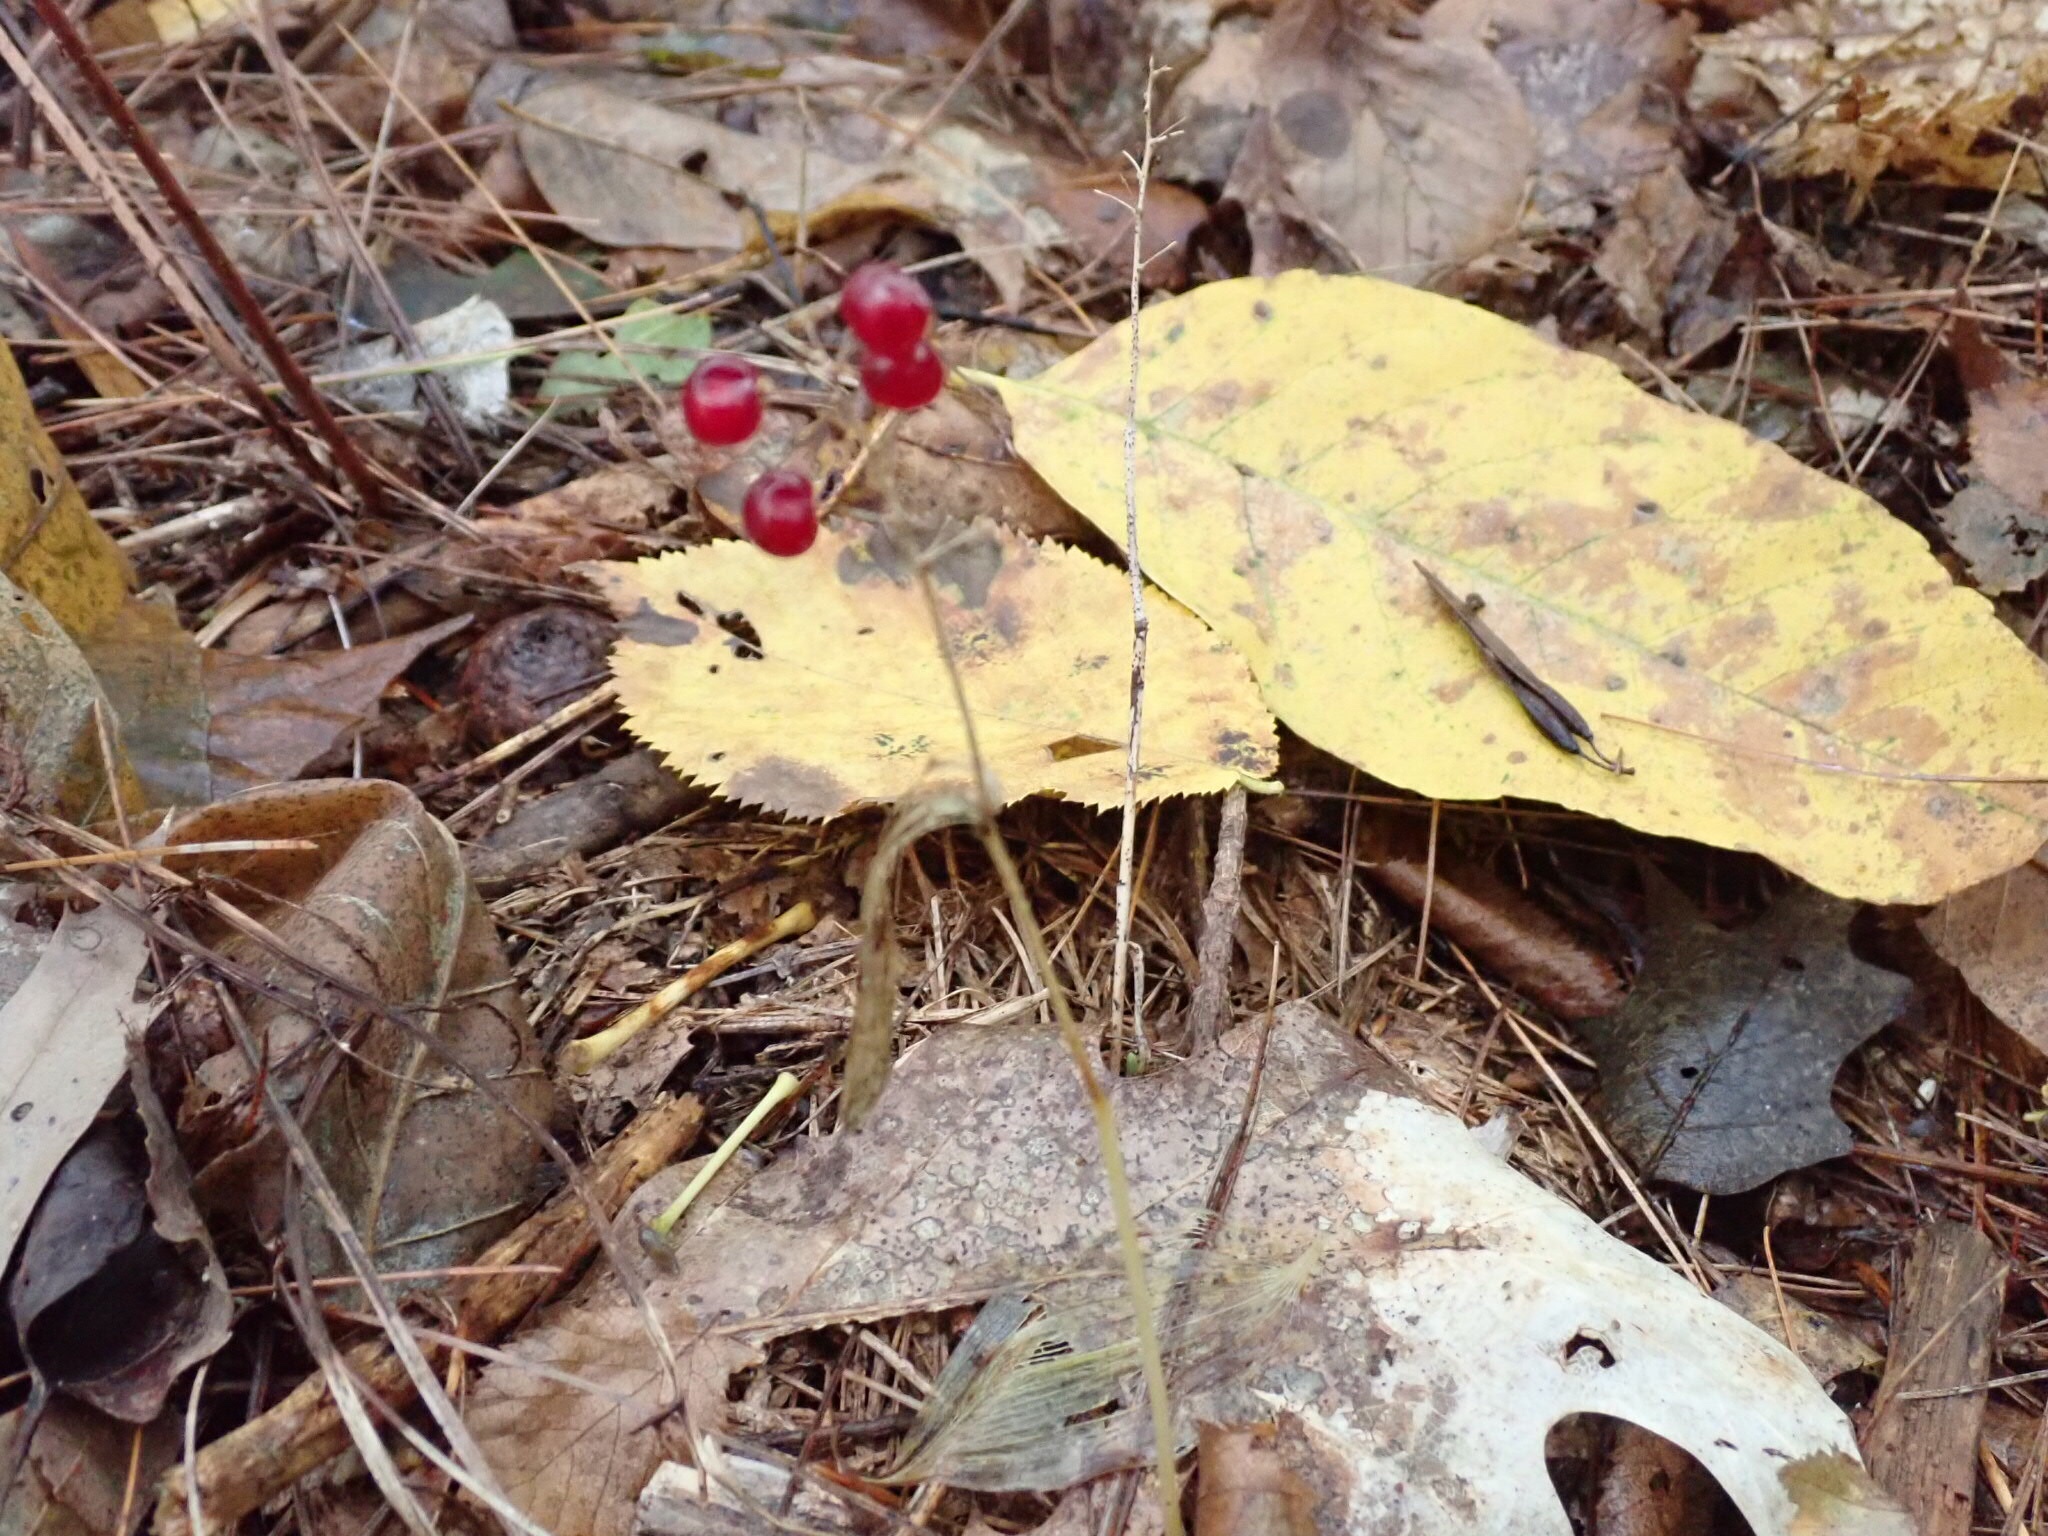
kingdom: Plantae
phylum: Tracheophyta
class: Liliopsida
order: Asparagales
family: Asparagaceae
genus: Maianthemum
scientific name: Maianthemum canadense
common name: False lily-of-the-valley
